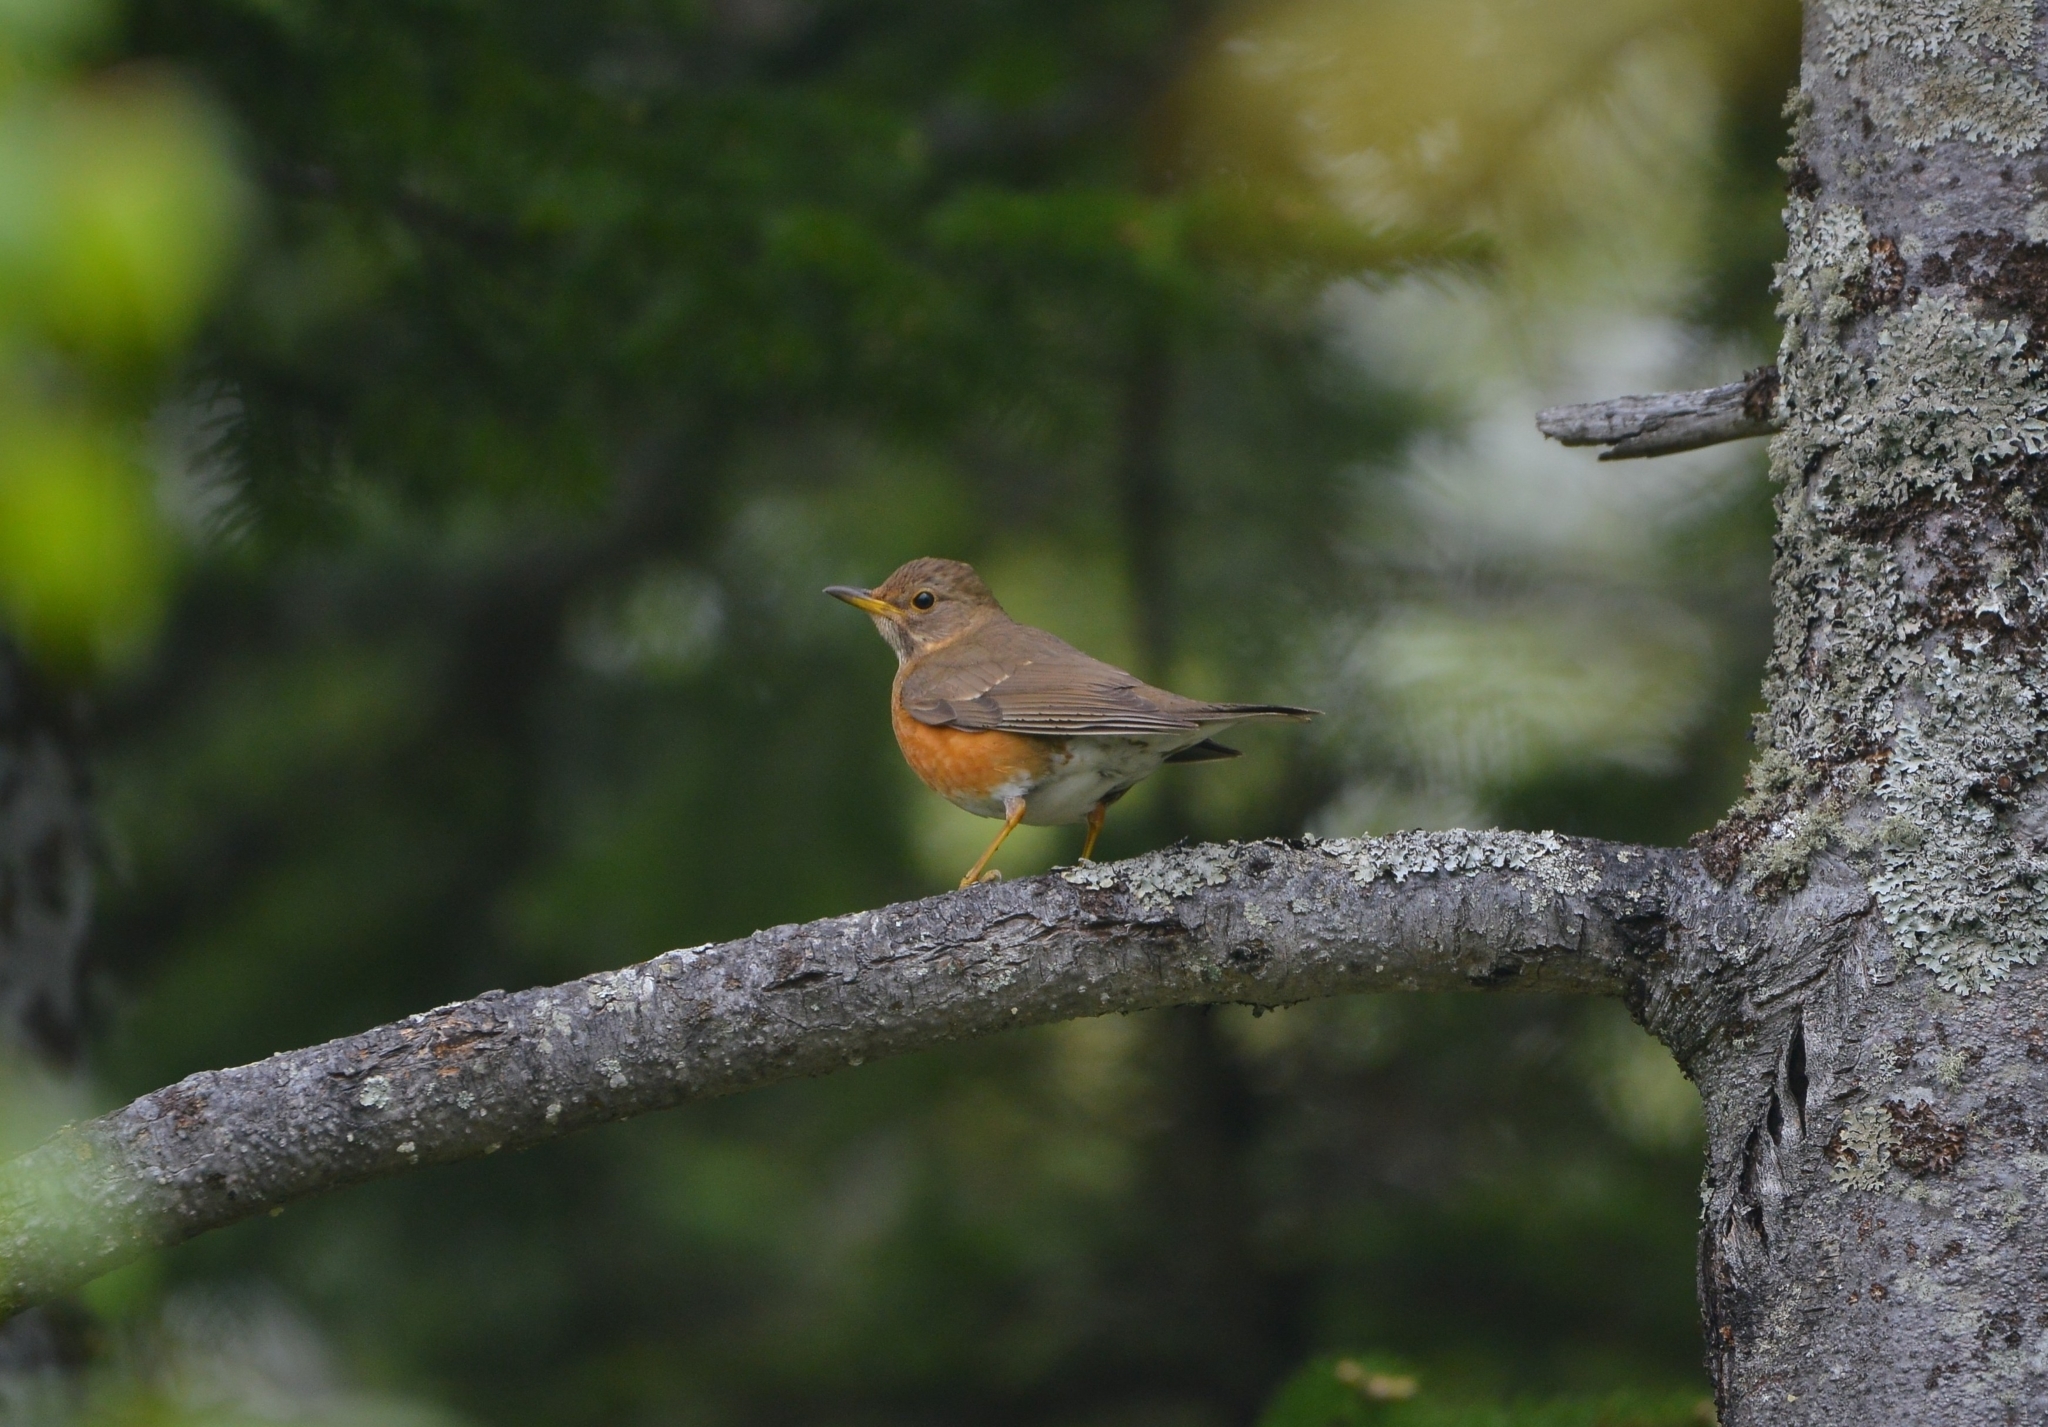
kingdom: Animalia
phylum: Chordata
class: Aves
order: Passeriformes
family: Turdidae
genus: Turdus
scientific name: Turdus chrysolaus
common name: Brown-headed thrush
